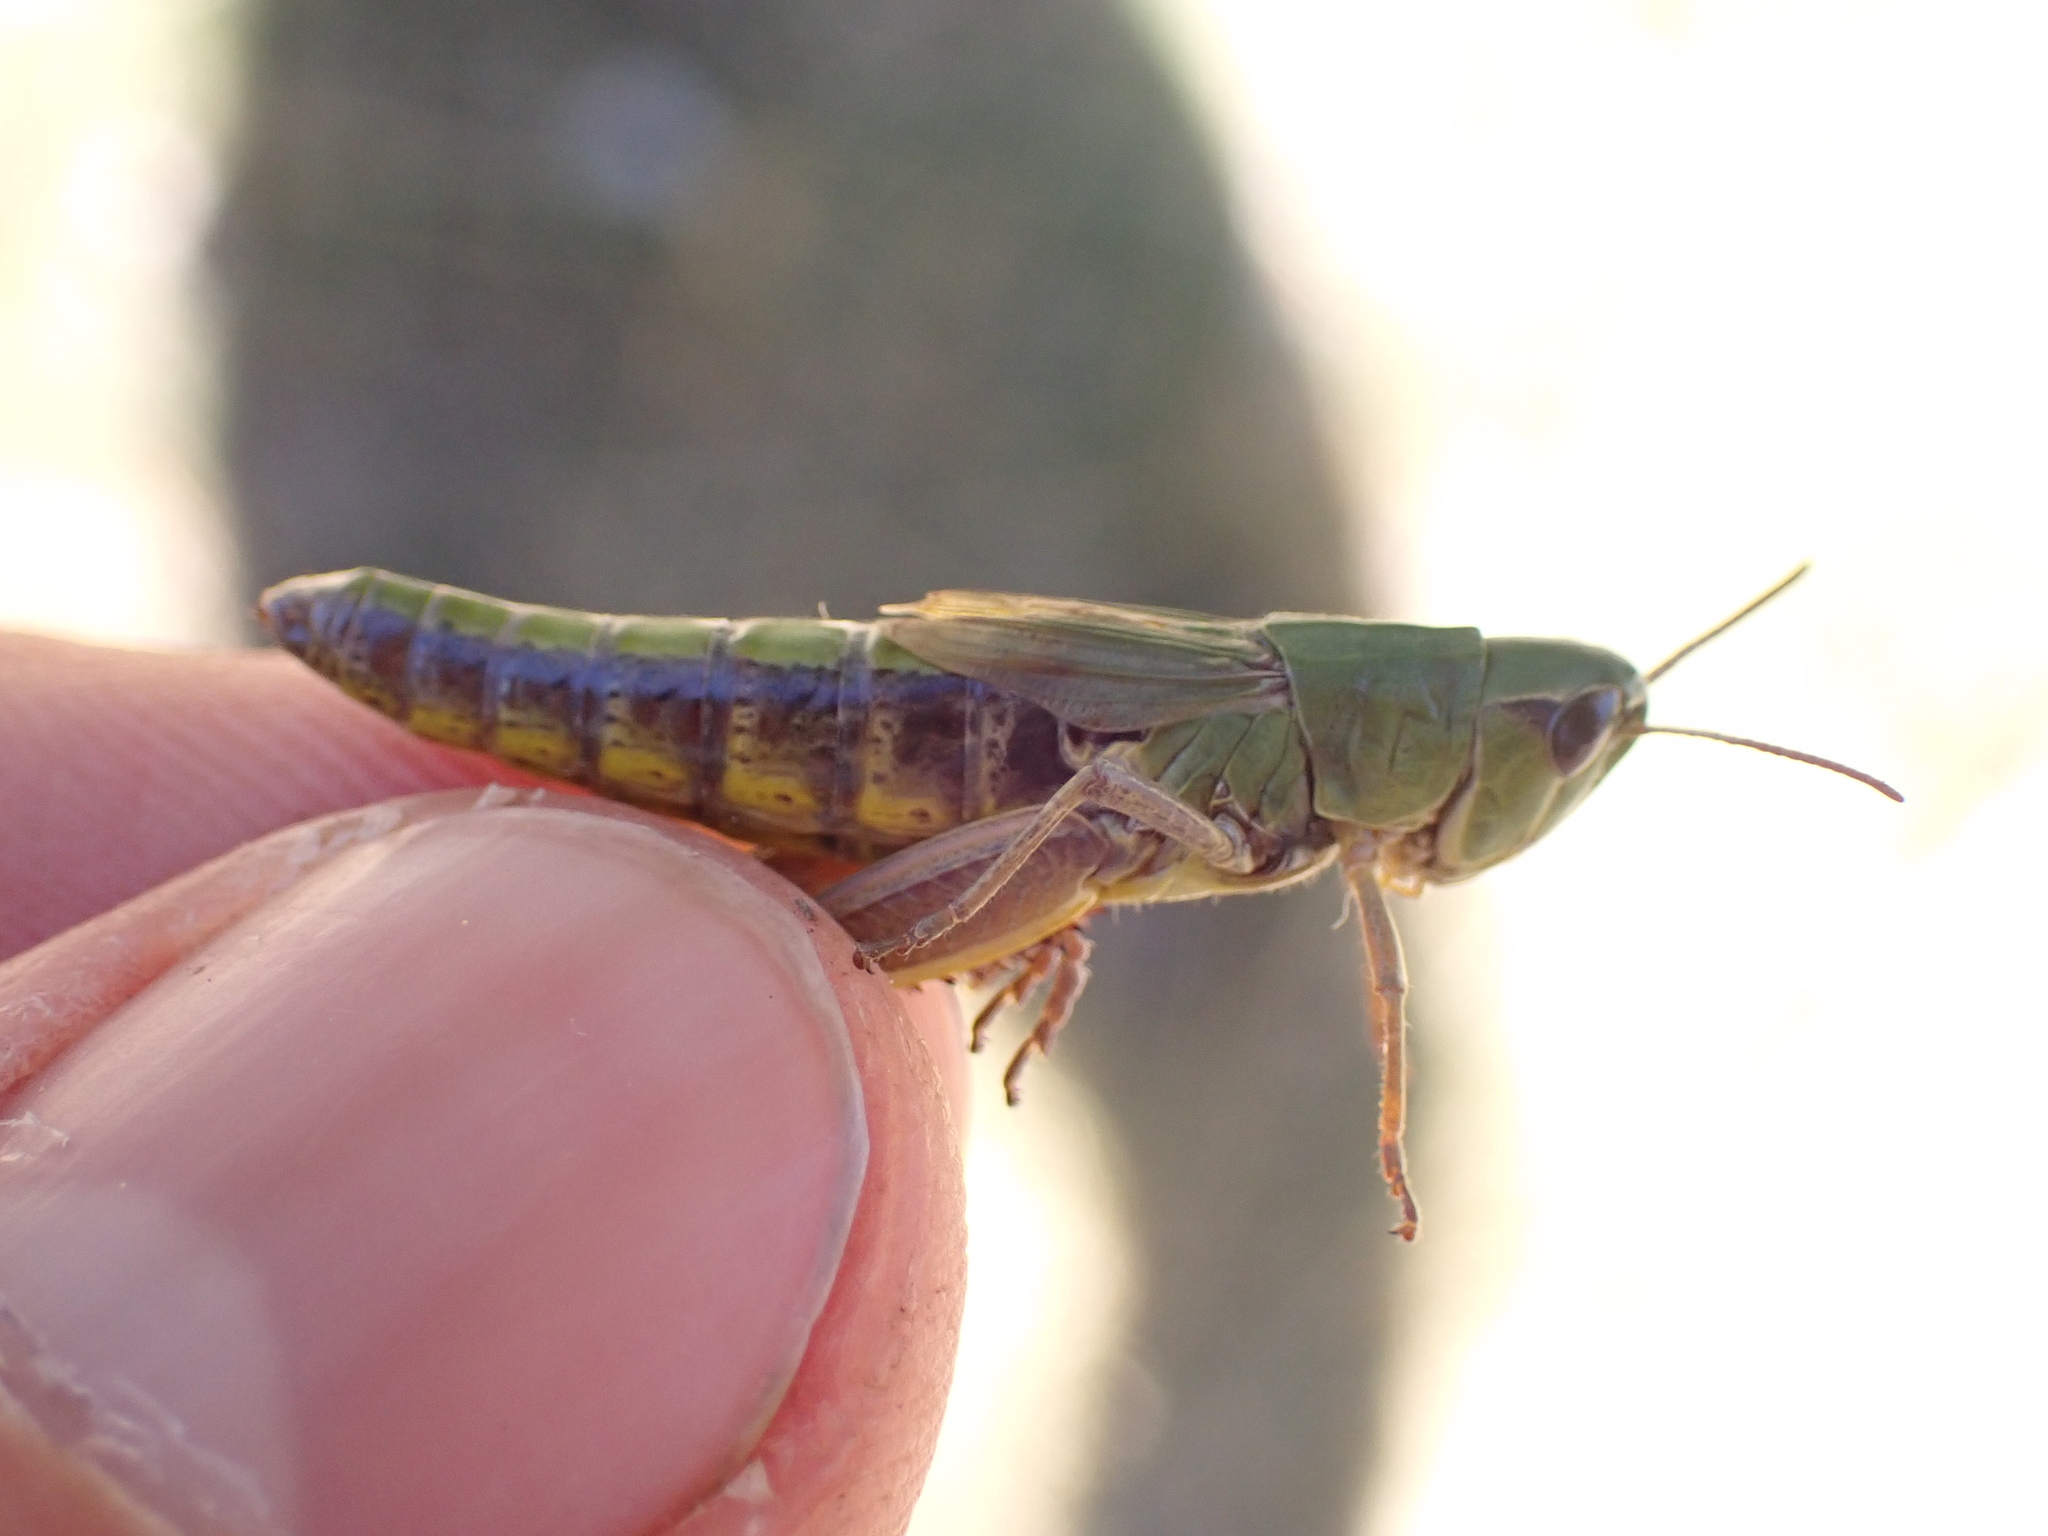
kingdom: Animalia
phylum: Arthropoda
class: Insecta
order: Orthoptera
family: Acrididae
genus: Pseudochorthippus
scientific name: Pseudochorthippus parallelus
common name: Meadow grasshopper
